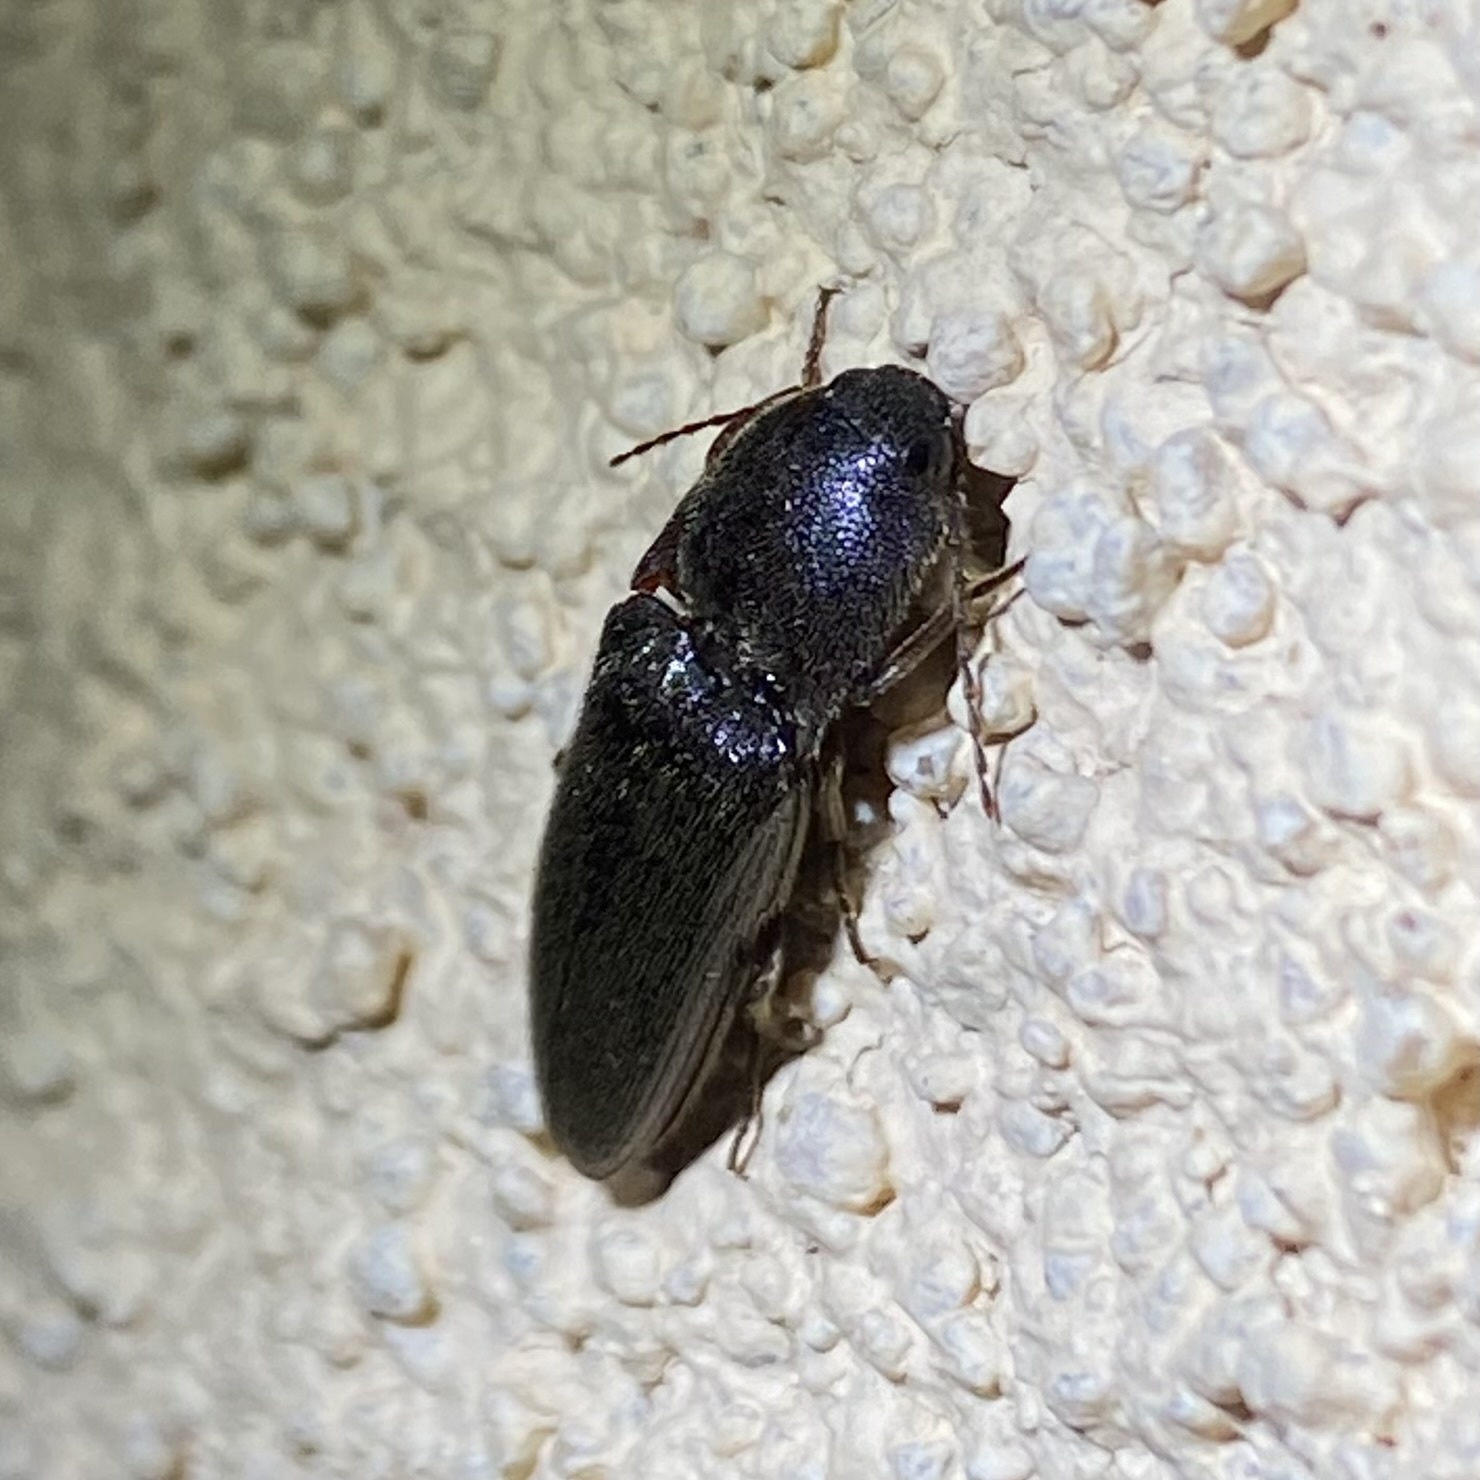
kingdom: Animalia
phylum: Arthropoda
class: Insecta
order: Coleoptera
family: Elateridae
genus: Melanotus
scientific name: Melanotus
